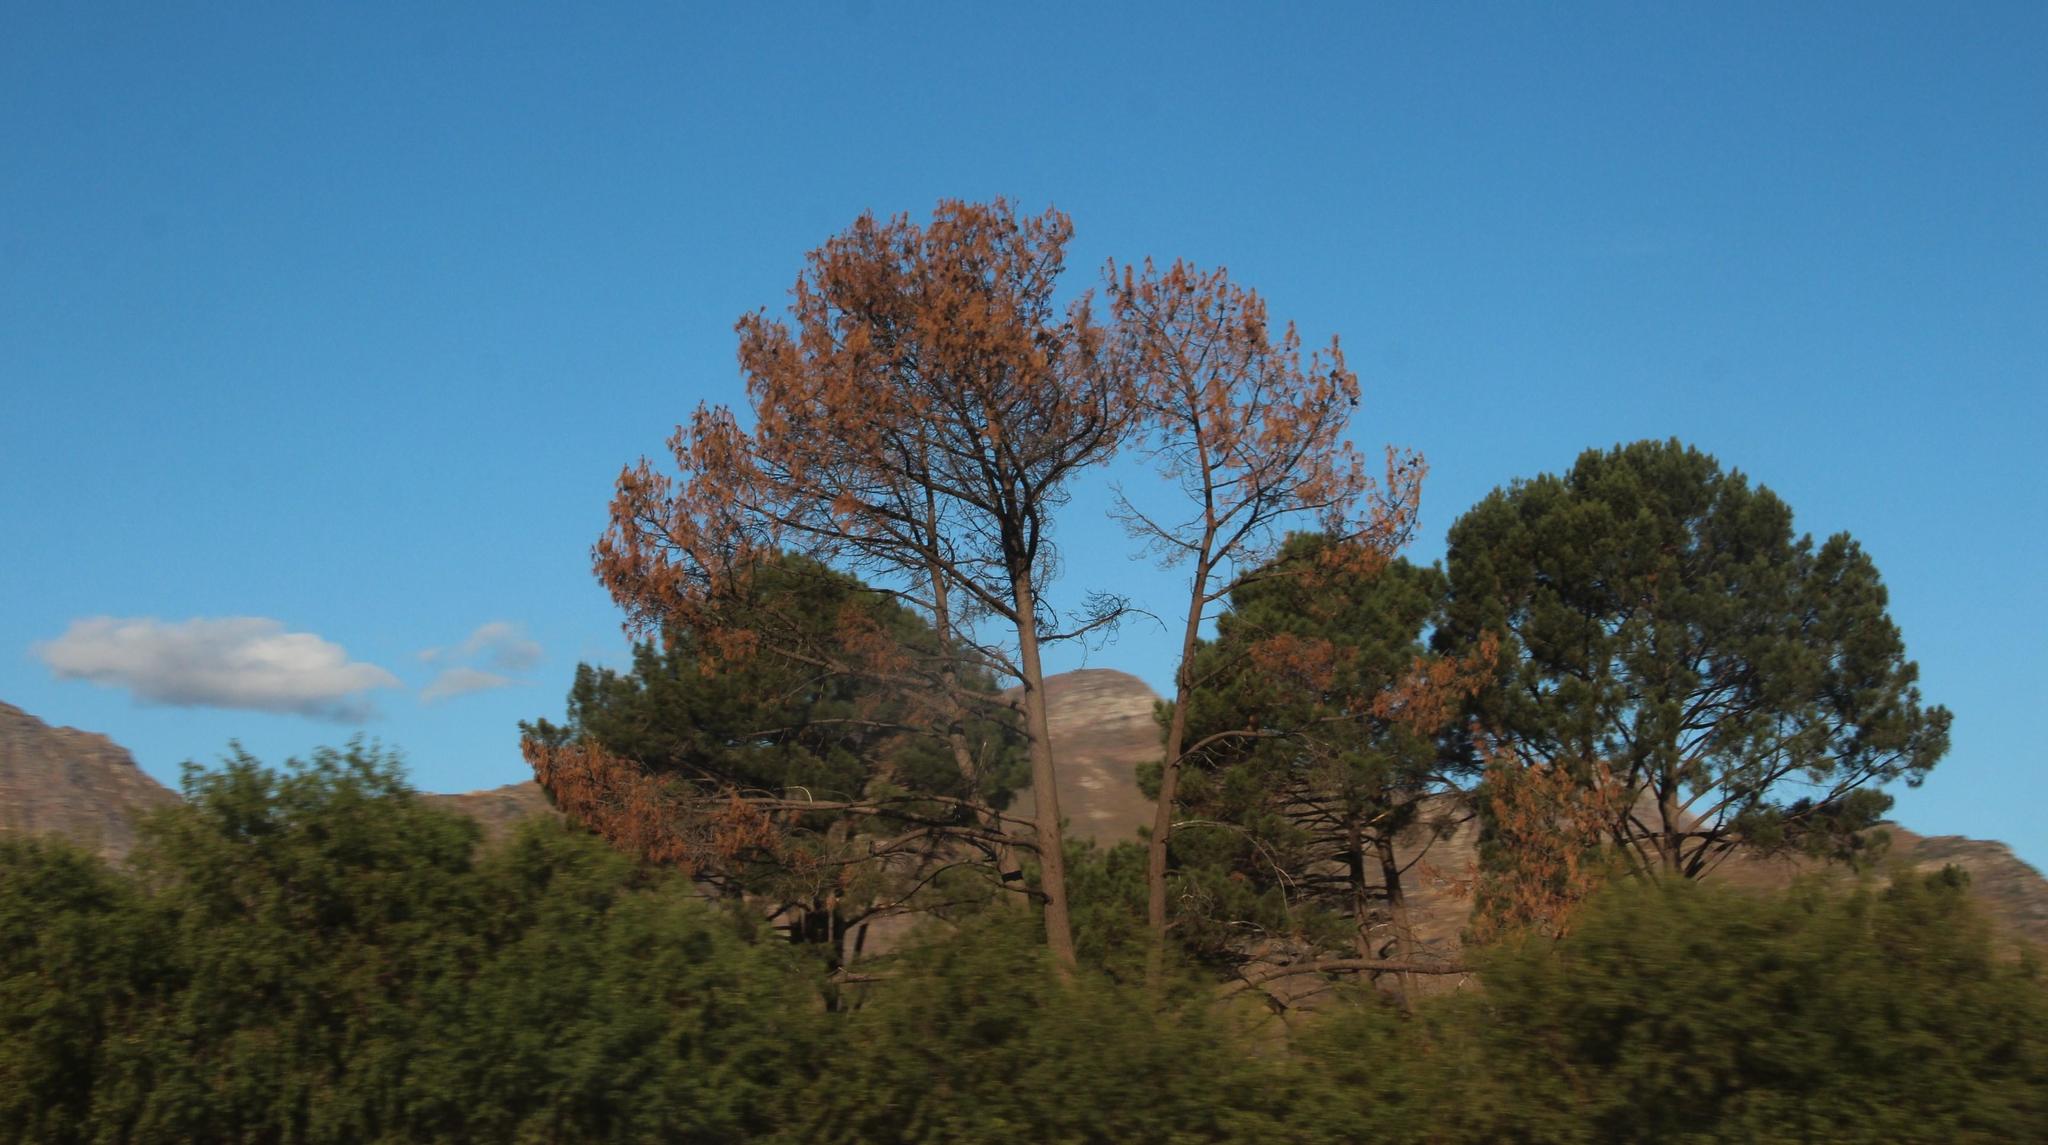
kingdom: Plantae
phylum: Tracheophyta
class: Pinopsida
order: Pinales
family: Pinaceae
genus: Pinus
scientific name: Pinus pinea
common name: Italian stone pine
